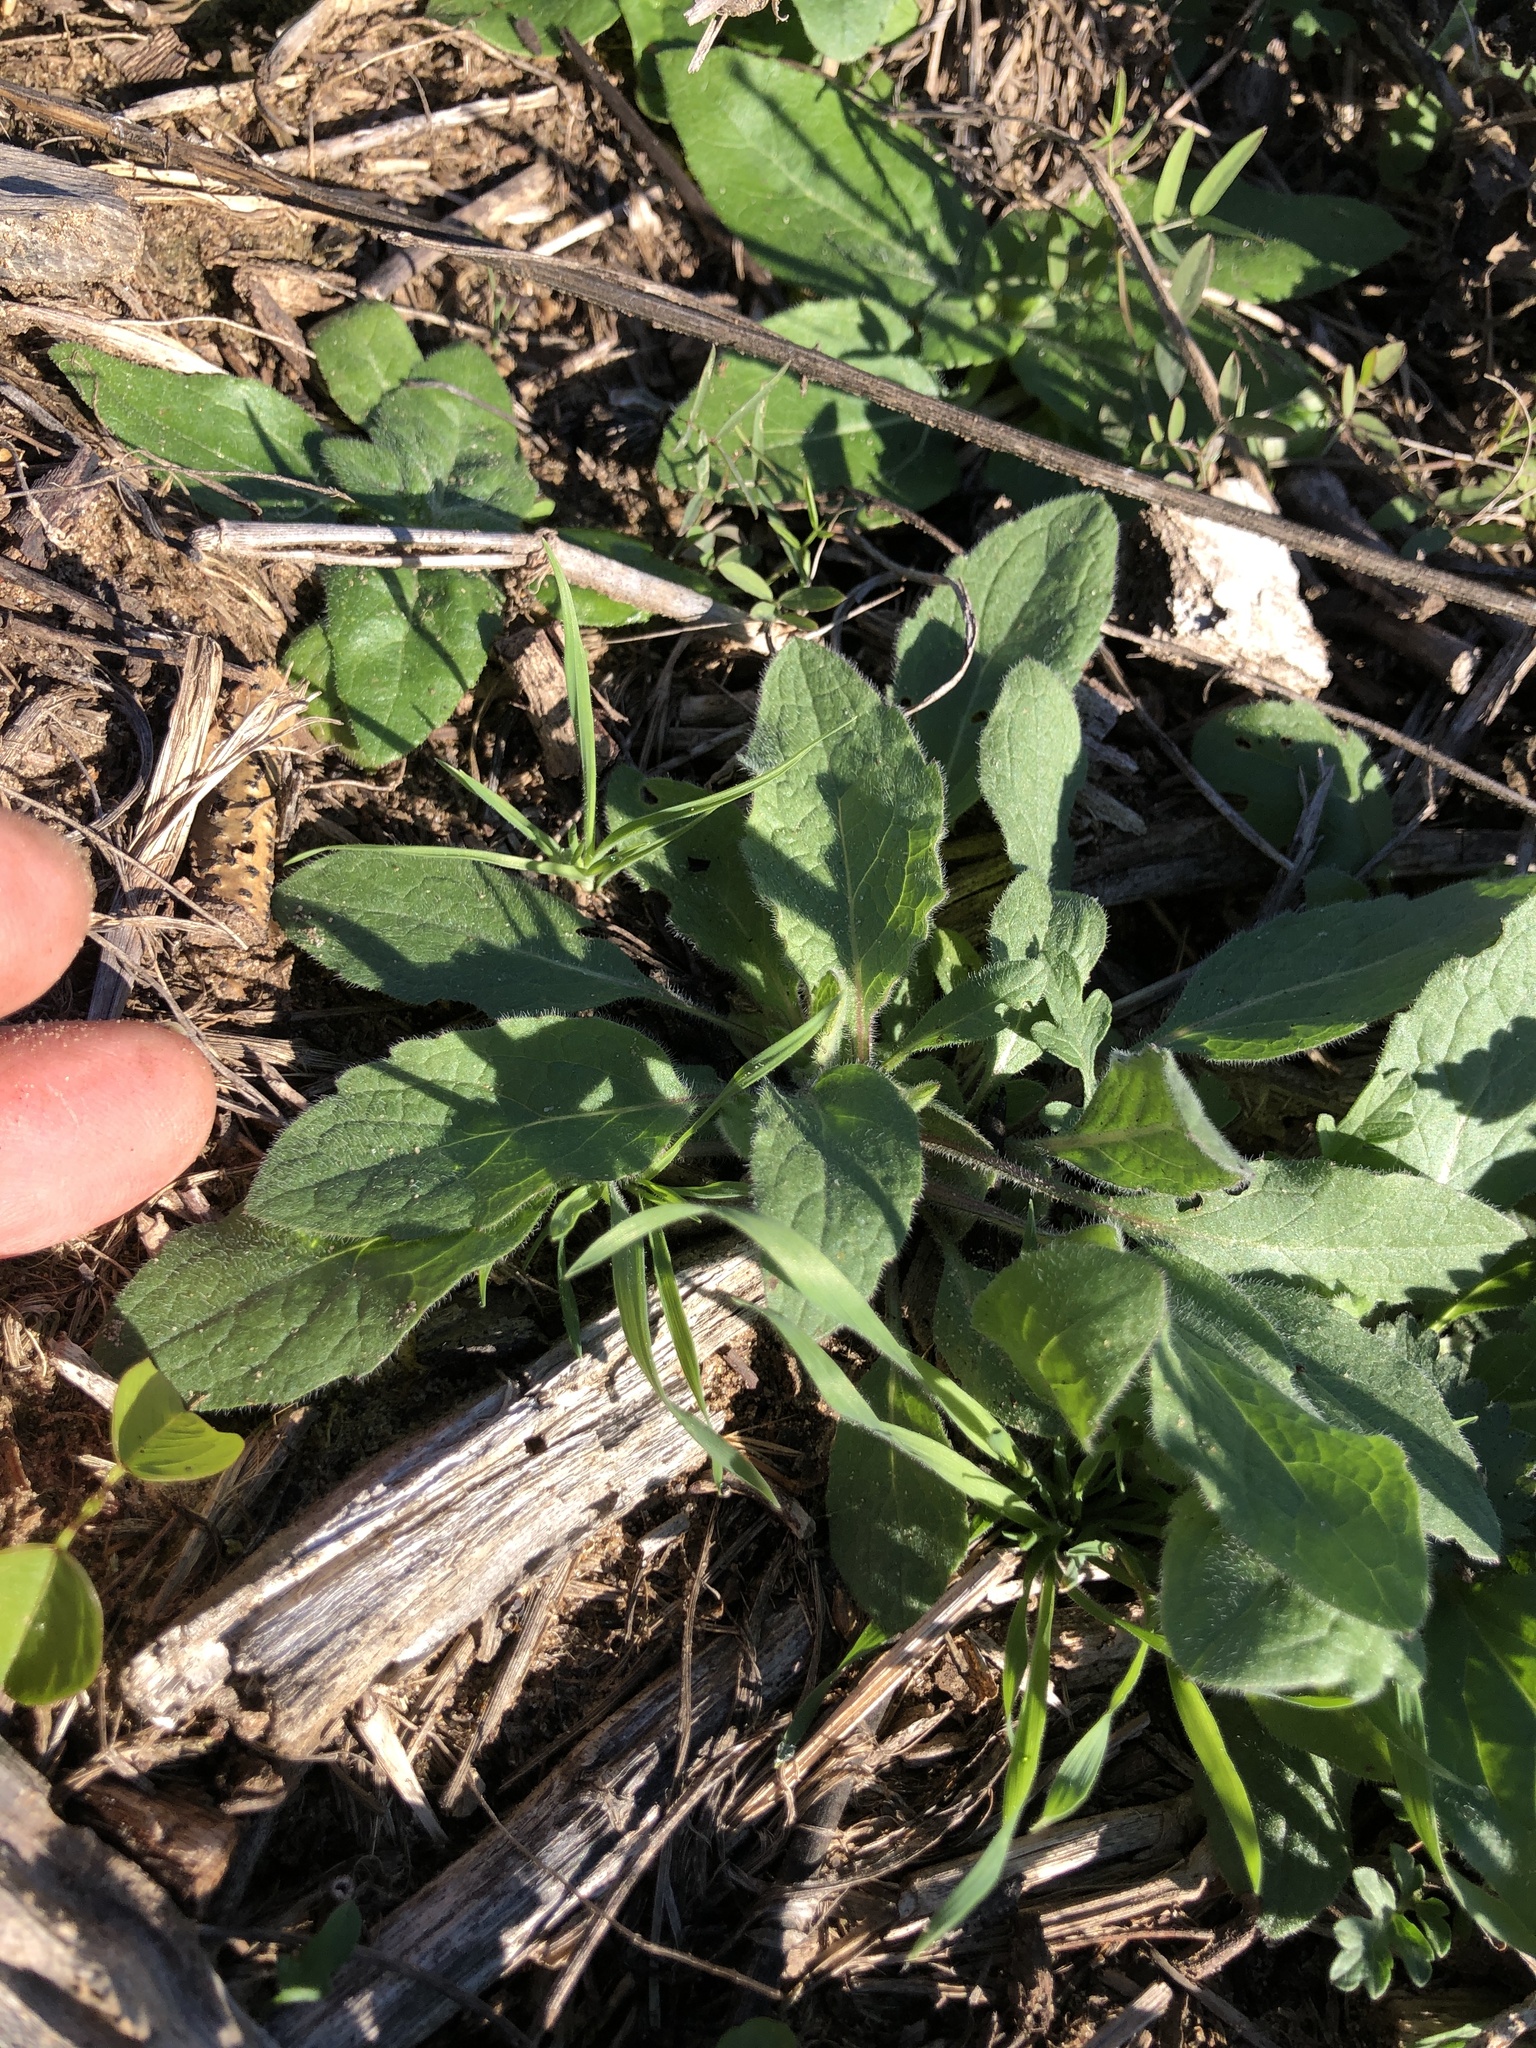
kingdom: Plantae
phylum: Tracheophyta
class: Magnoliopsida
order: Asterales
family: Asteraceae
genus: Heterotheca
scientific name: Heterotheca subaxillaris
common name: Camphorweed
